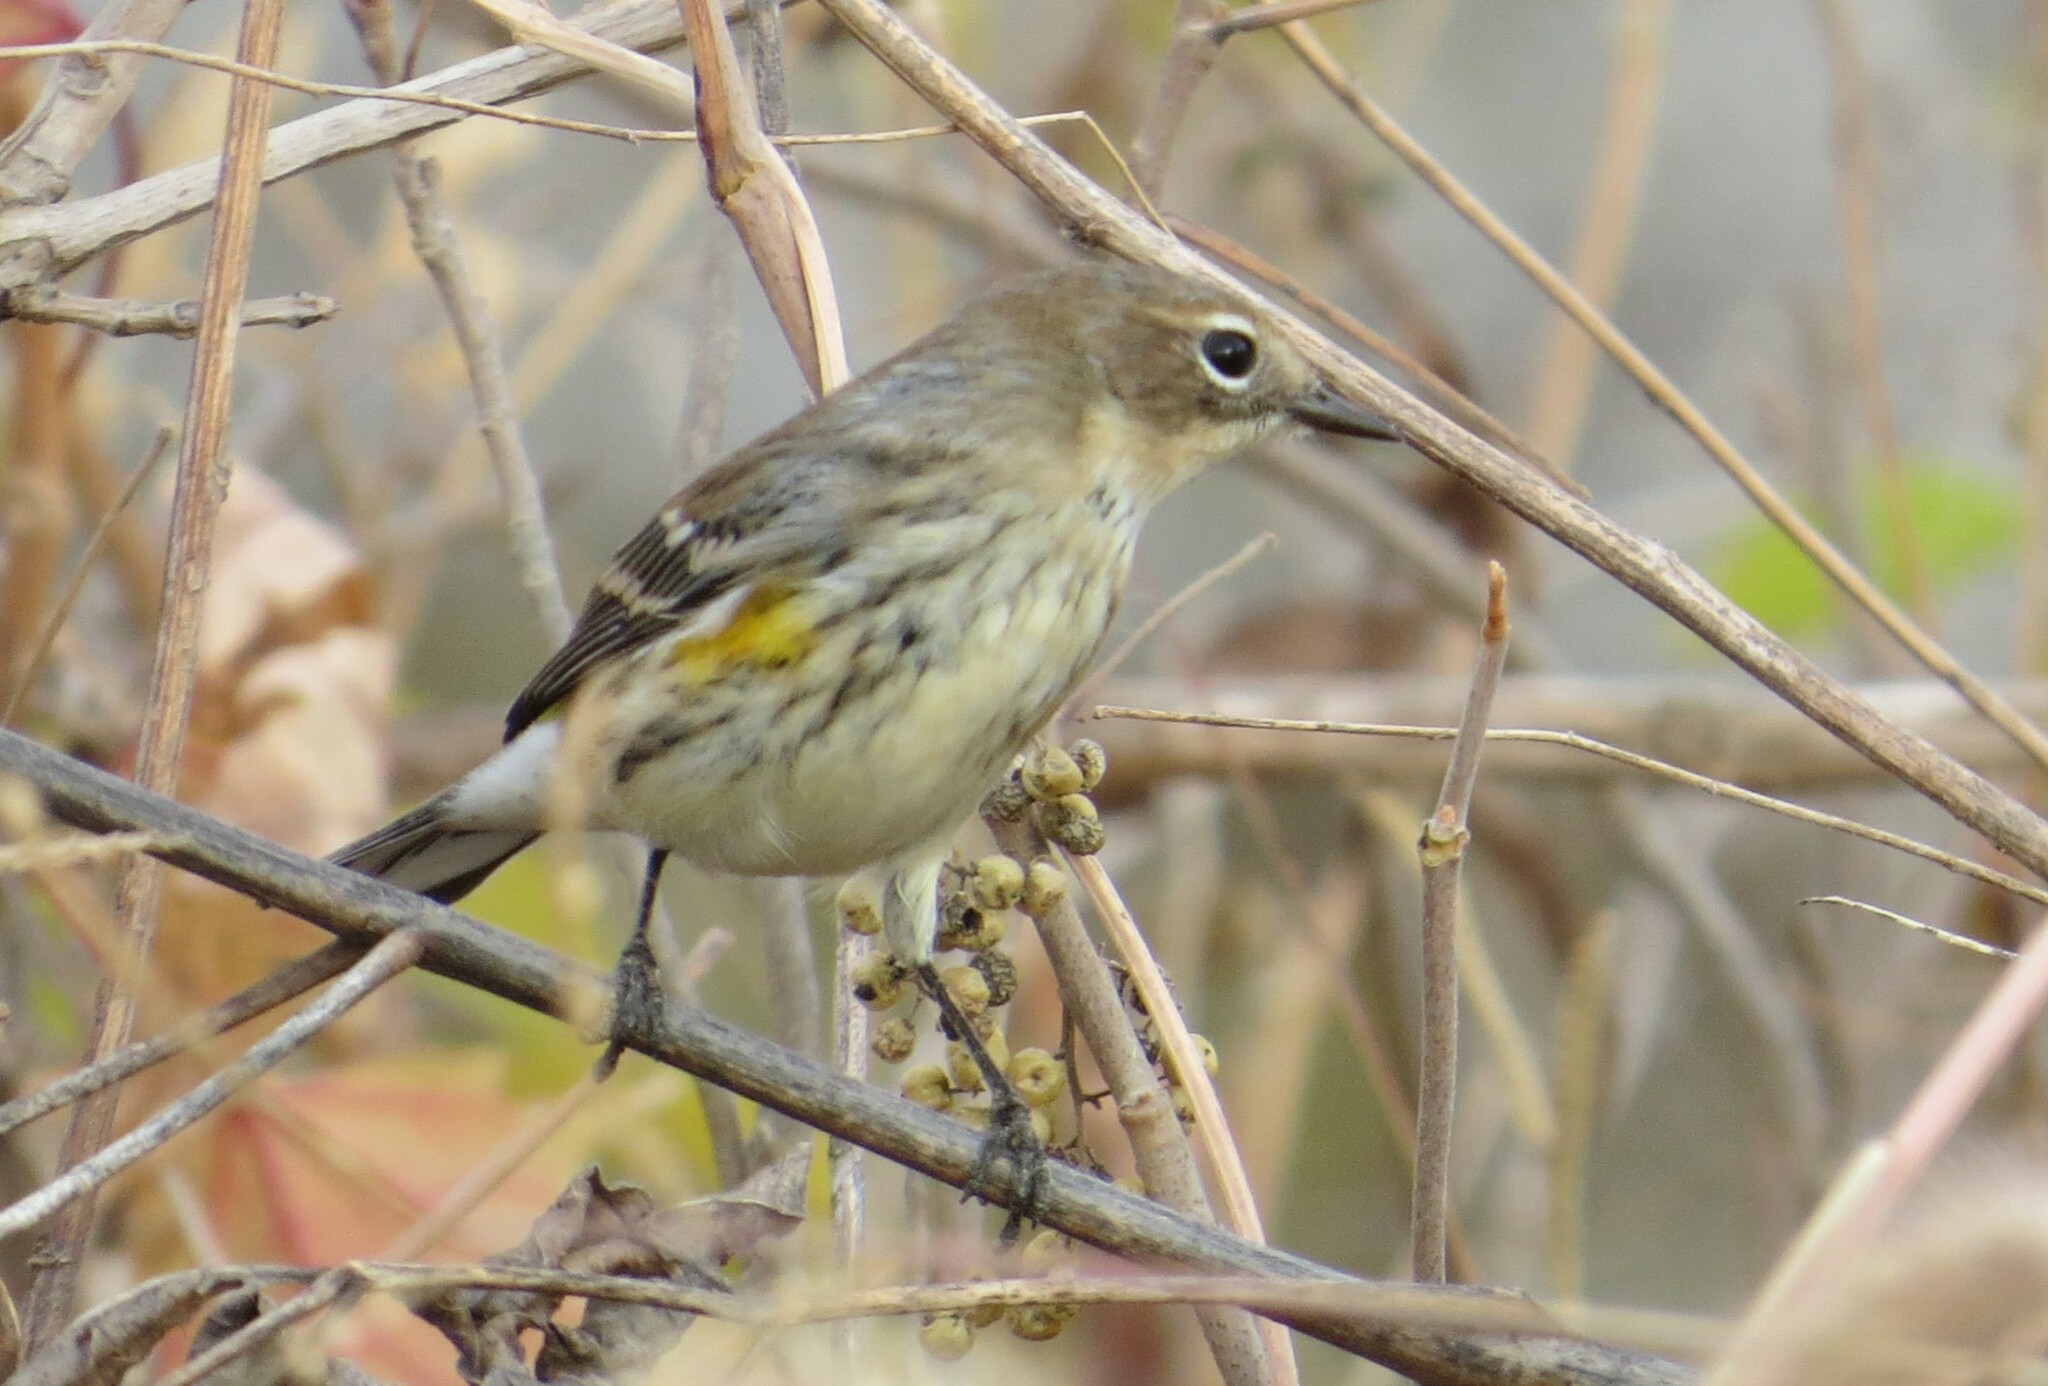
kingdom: Animalia
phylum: Chordata
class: Aves
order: Passeriformes
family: Parulidae
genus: Setophaga
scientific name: Setophaga coronata
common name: Myrtle warbler
